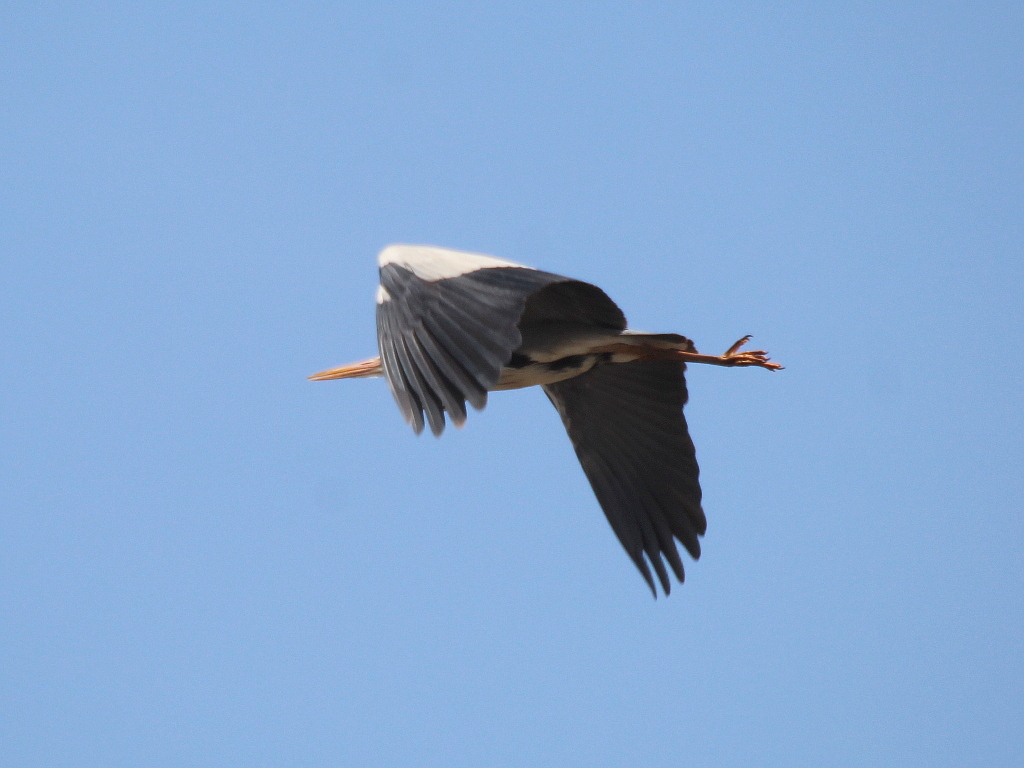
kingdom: Animalia
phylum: Chordata
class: Aves
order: Pelecaniformes
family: Ardeidae
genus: Ardea
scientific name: Ardea cinerea
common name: Grey heron
